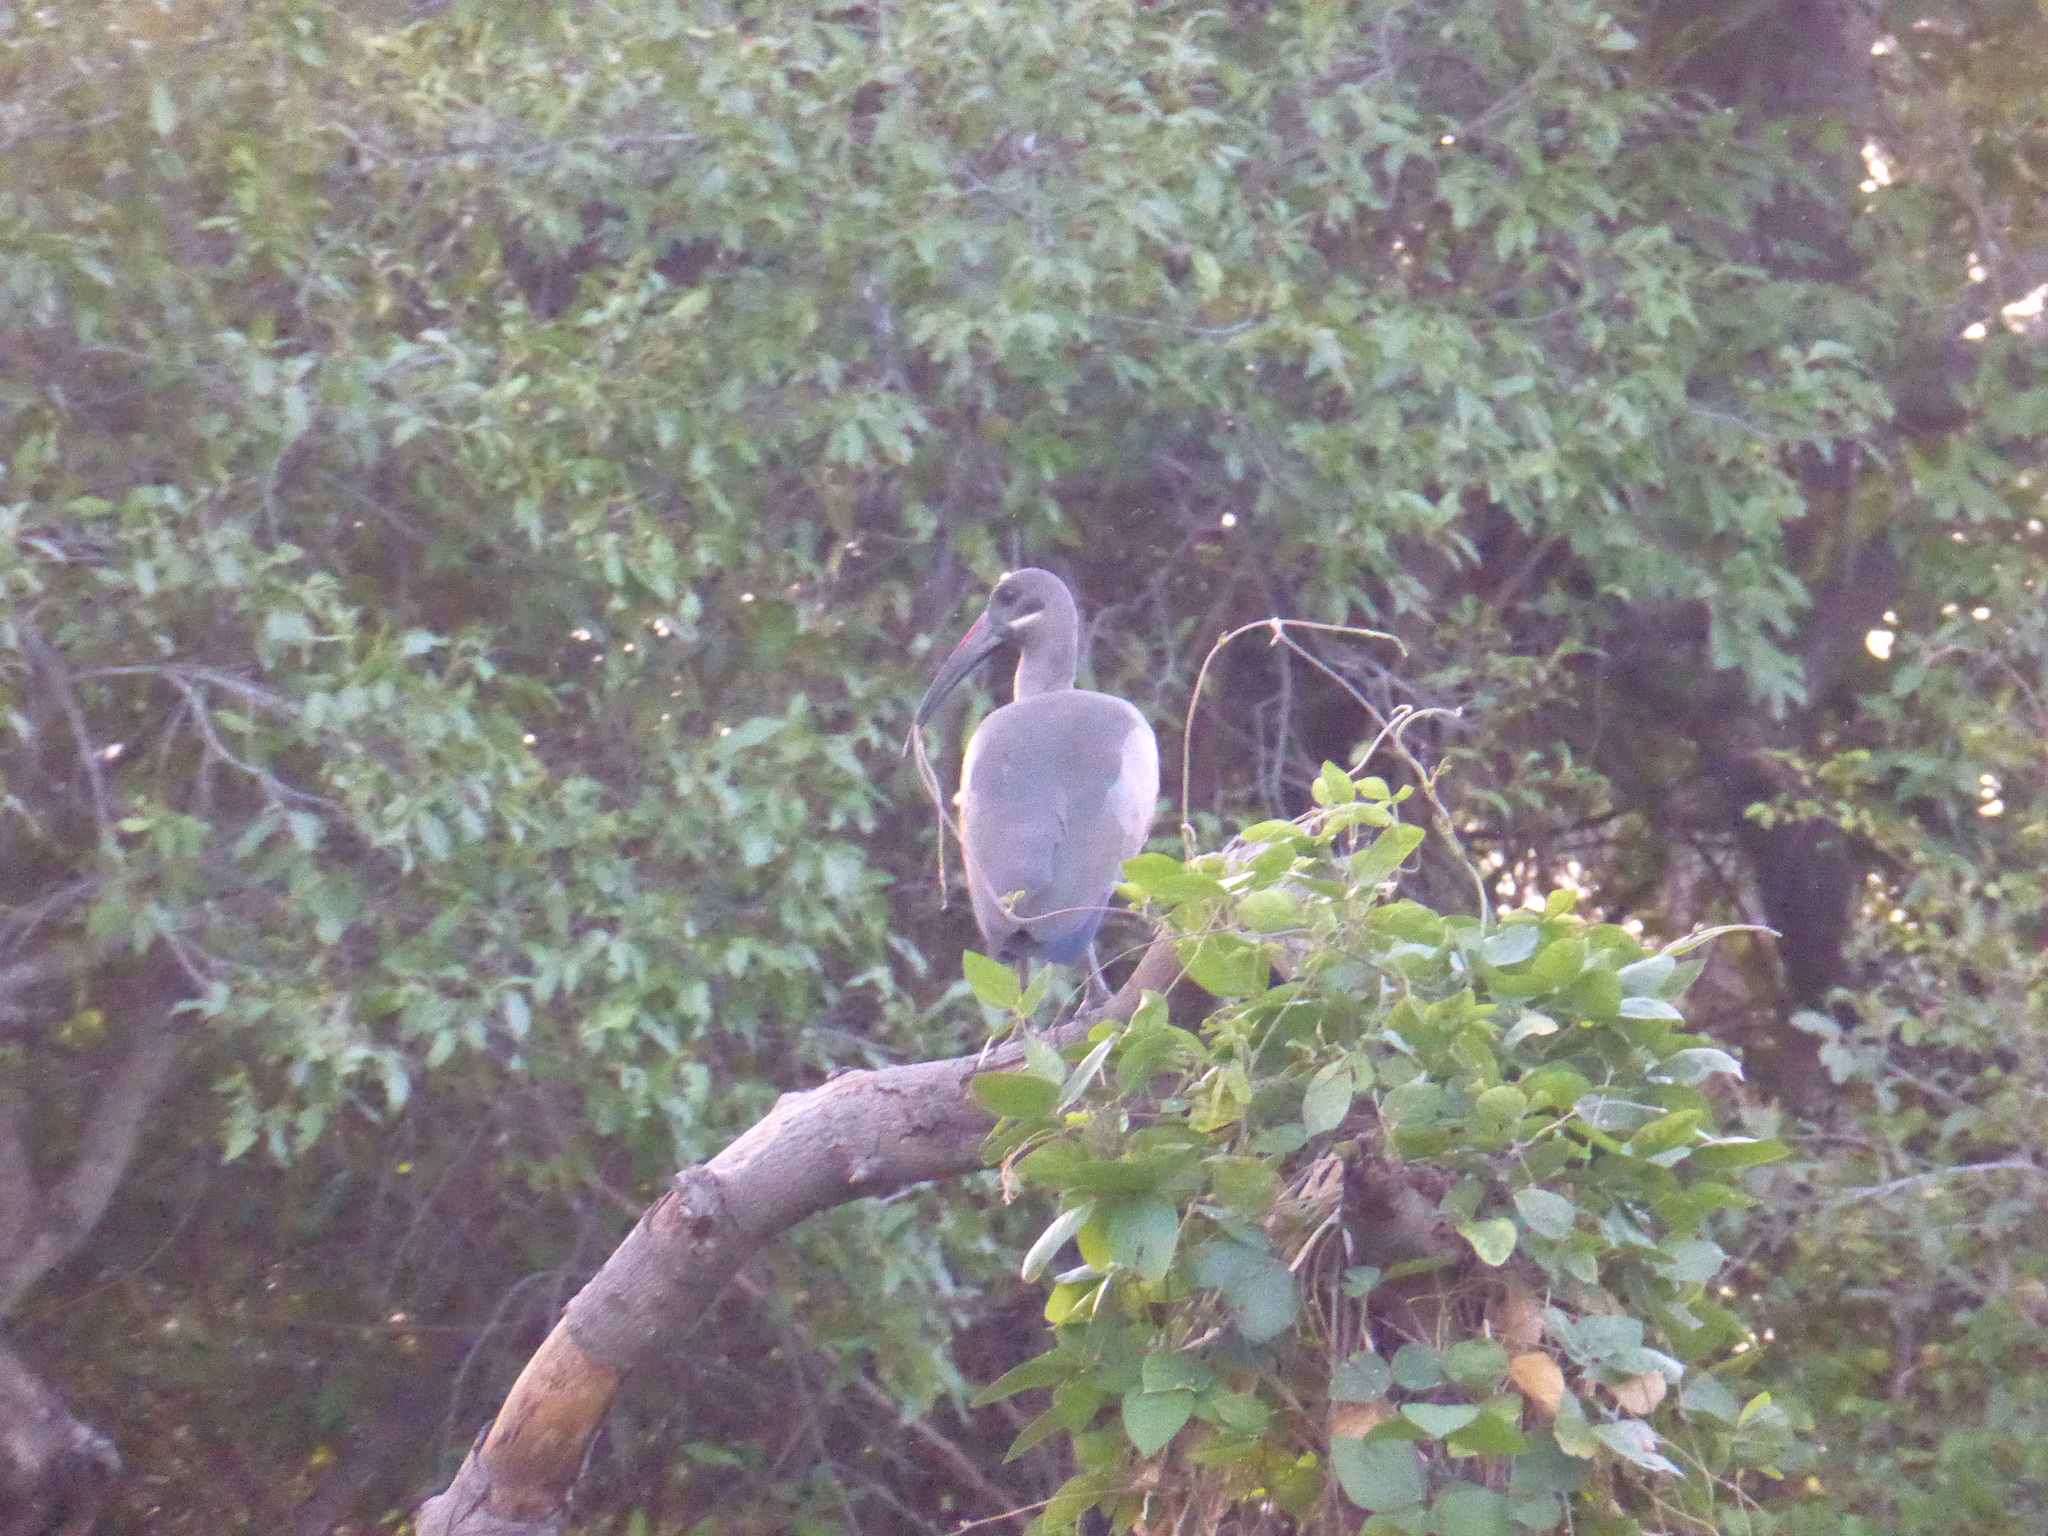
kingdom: Animalia
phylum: Chordata
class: Aves
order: Pelecaniformes
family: Threskiornithidae
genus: Bostrychia
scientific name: Bostrychia hagedash
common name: Hadada ibis
